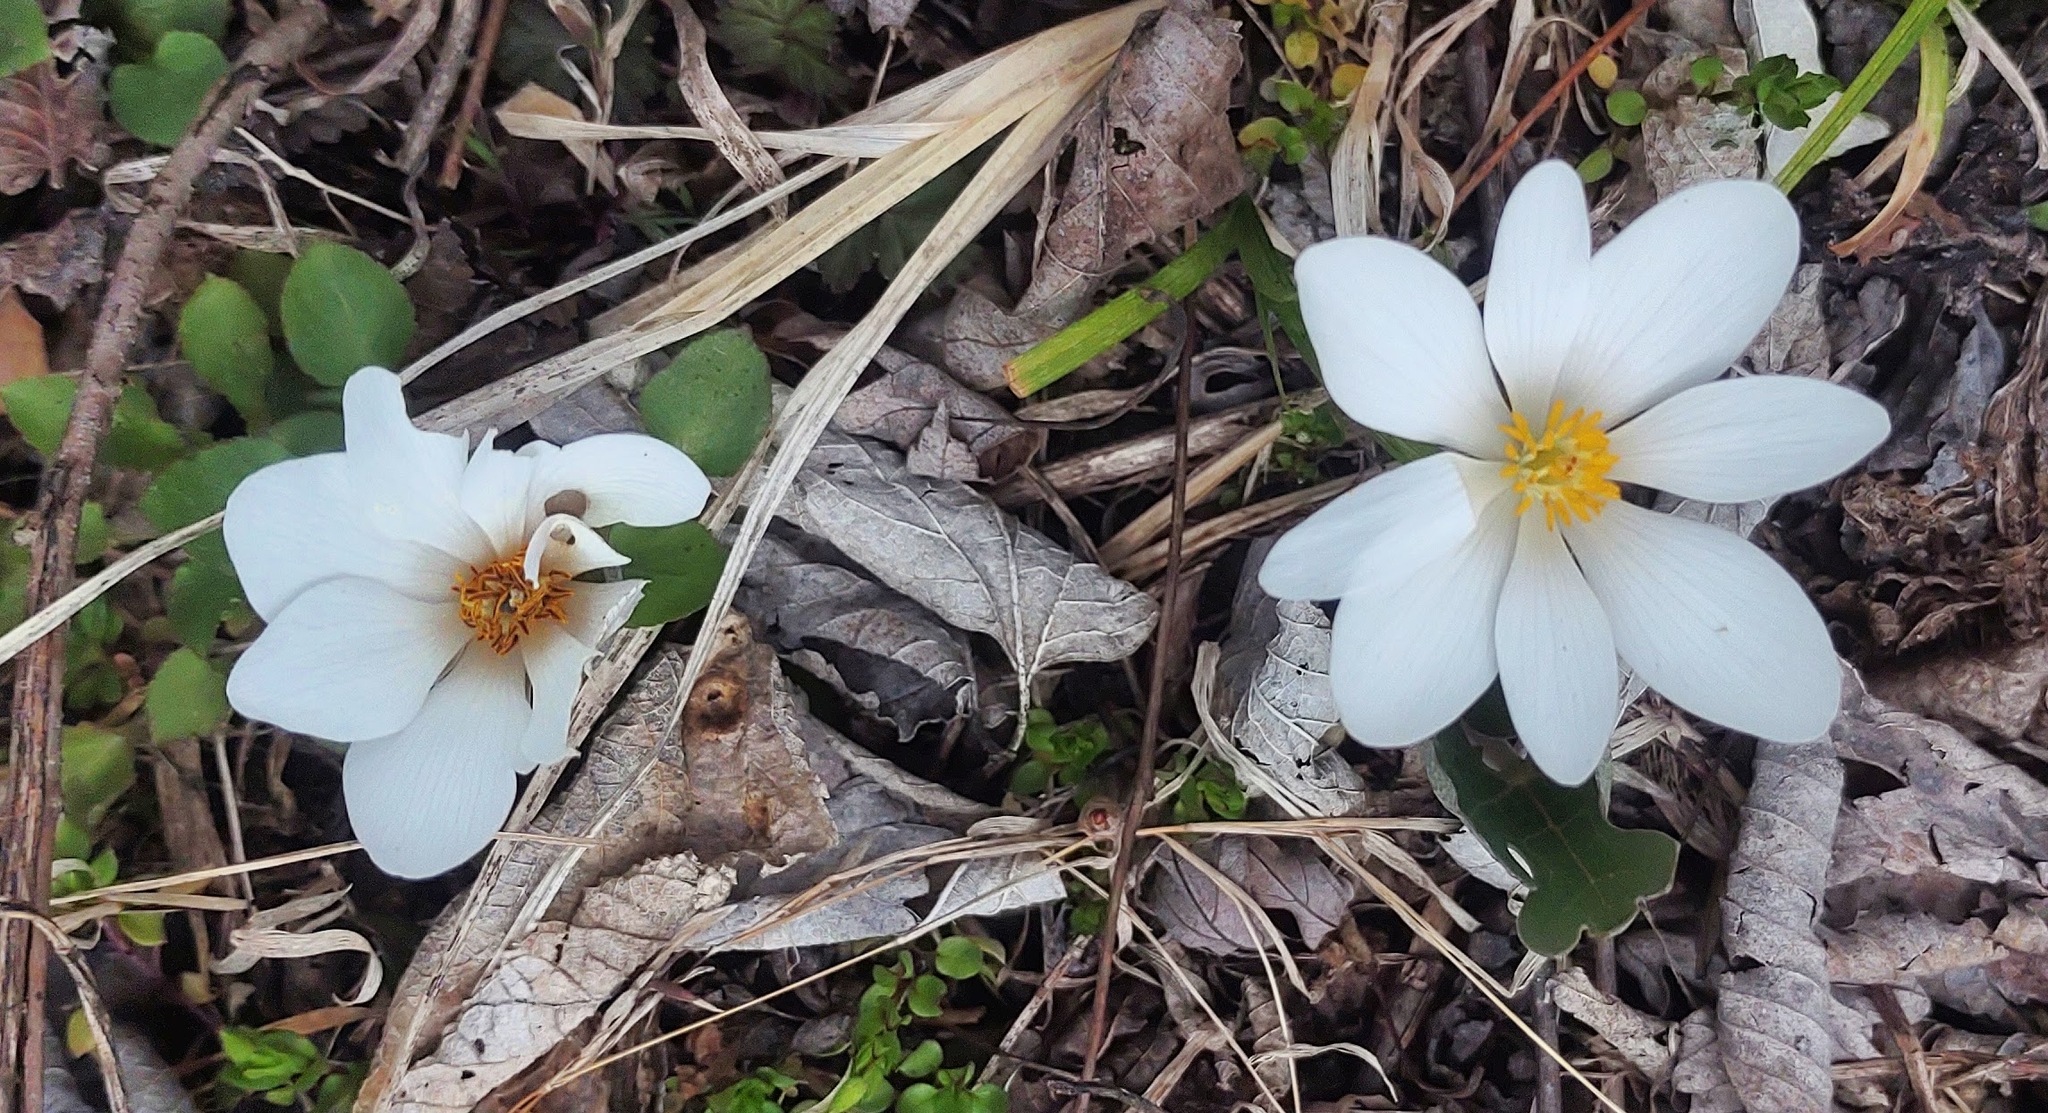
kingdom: Plantae
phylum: Tracheophyta
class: Magnoliopsida
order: Ranunculales
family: Papaveraceae
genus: Sanguinaria
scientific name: Sanguinaria canadensis
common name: Bloodroot
